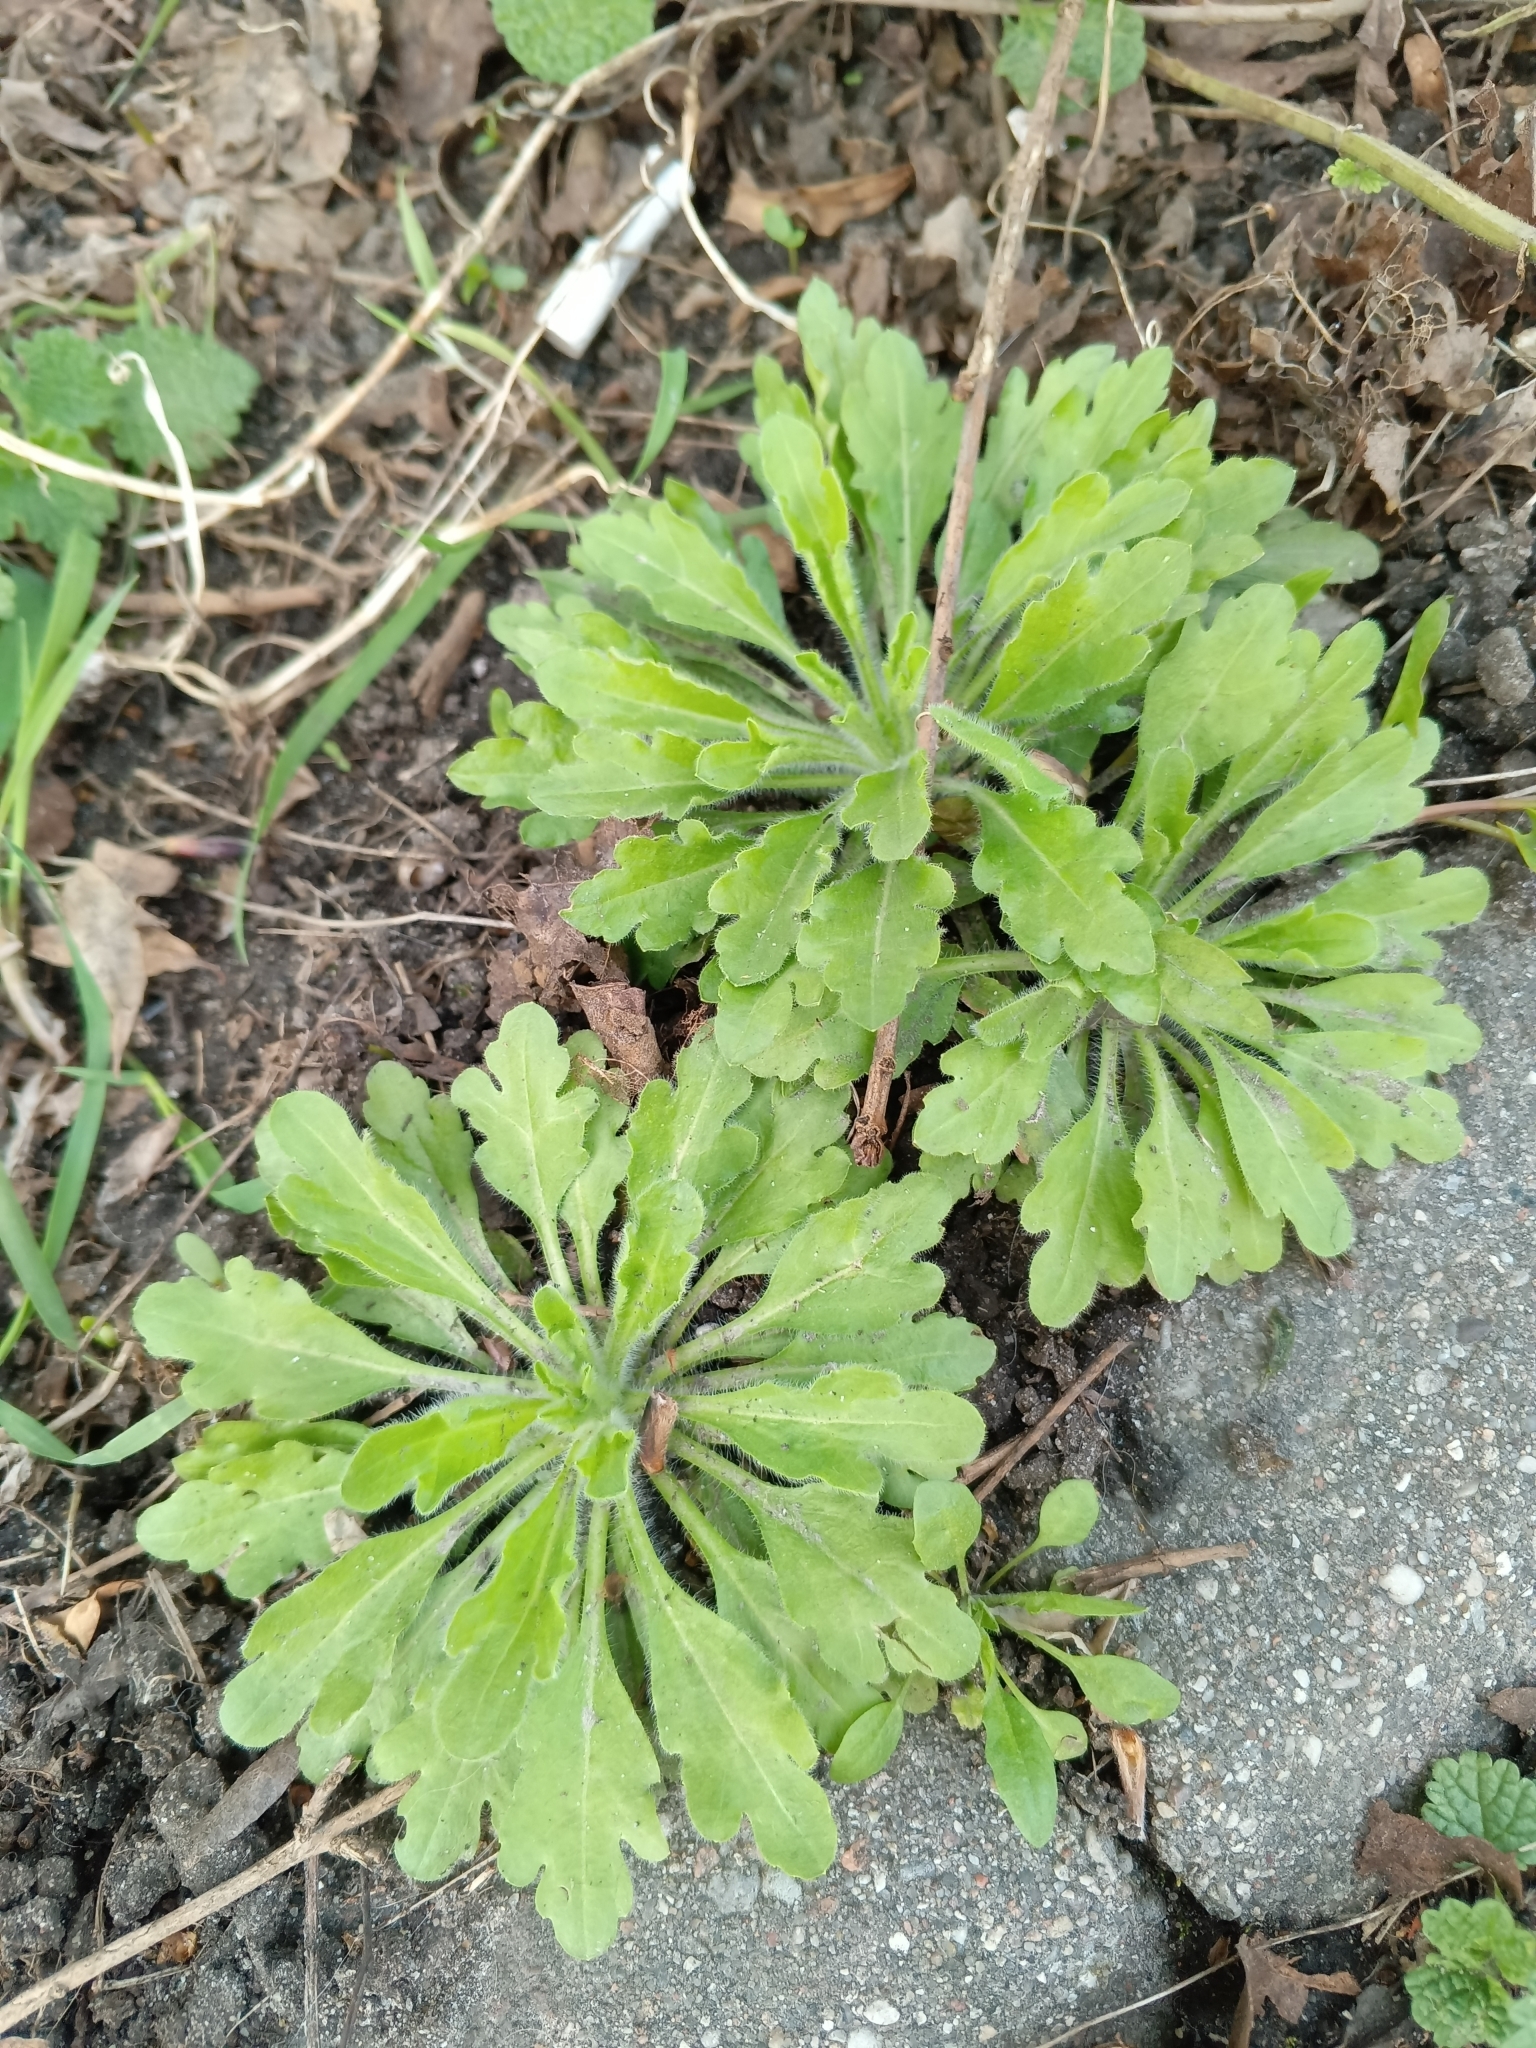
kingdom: Plantae
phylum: Tracheophyta
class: Magnoliopsida
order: Asterales
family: Asteraceae
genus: Erigeron
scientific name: Erigeron canadensis
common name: Canadian fleabane
